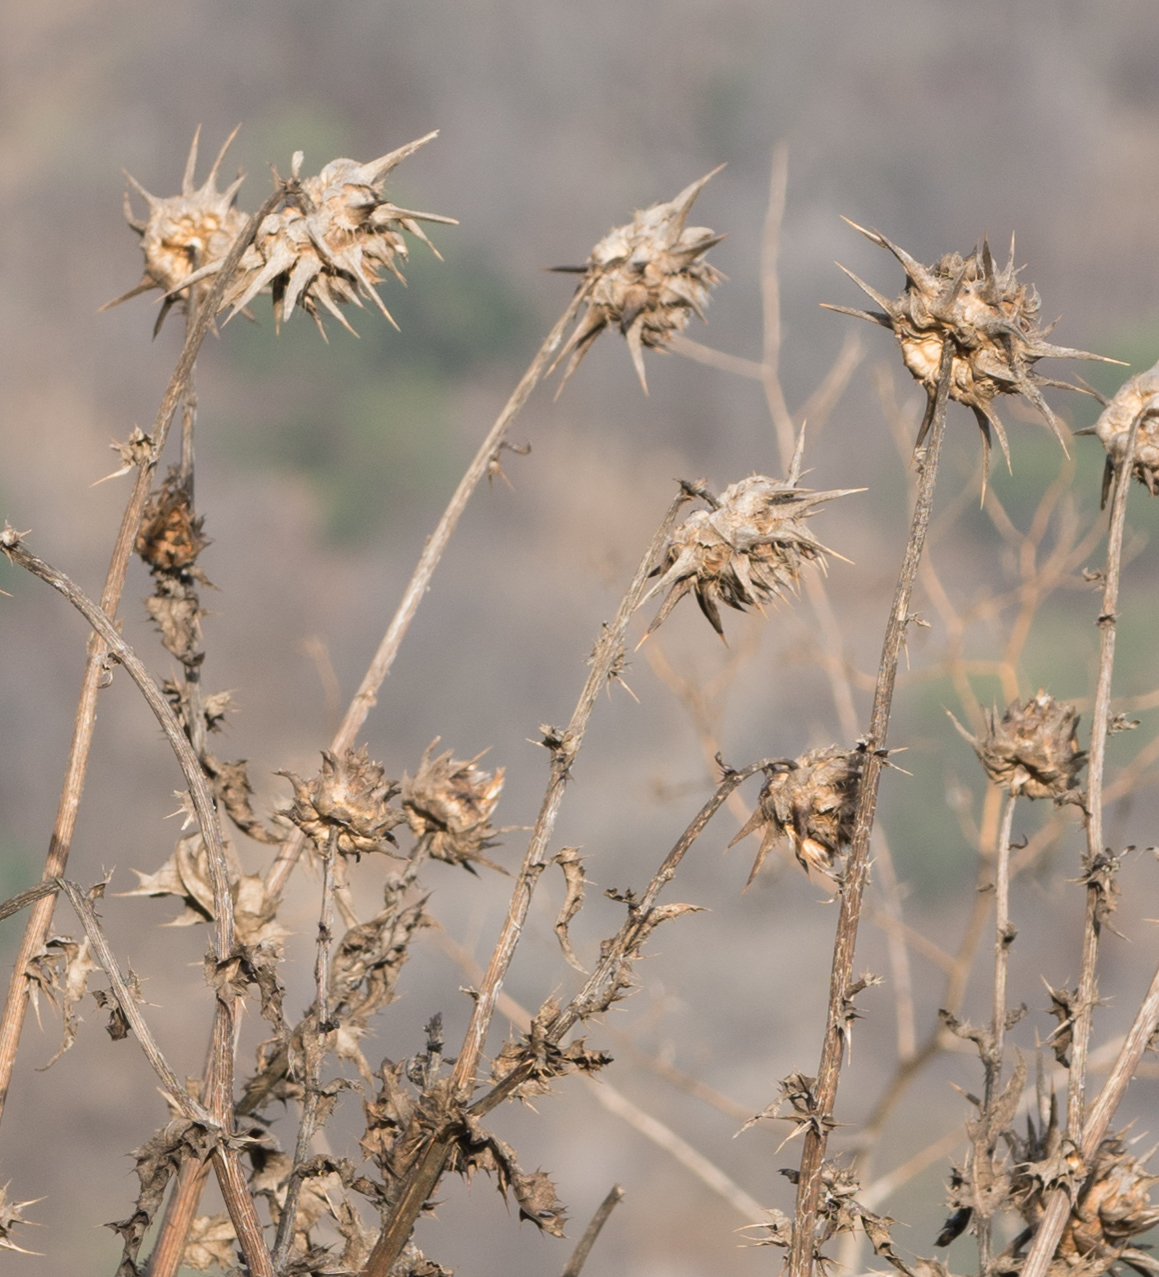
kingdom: Plantae
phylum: Tracheophyta
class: Magnoliopsida
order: Asterales
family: Asteraceae
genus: Silybum
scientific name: Silybum marianum
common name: Milk thistle
